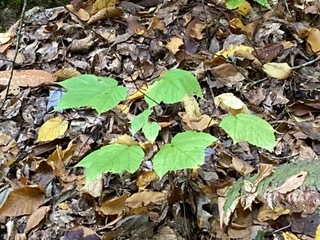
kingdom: Plantae
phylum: Tracheophyta
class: Magnoliopsida
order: Sapindales
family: Sapindaceae
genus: Acer
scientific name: Acer pensylvanicum
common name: Moosewood
